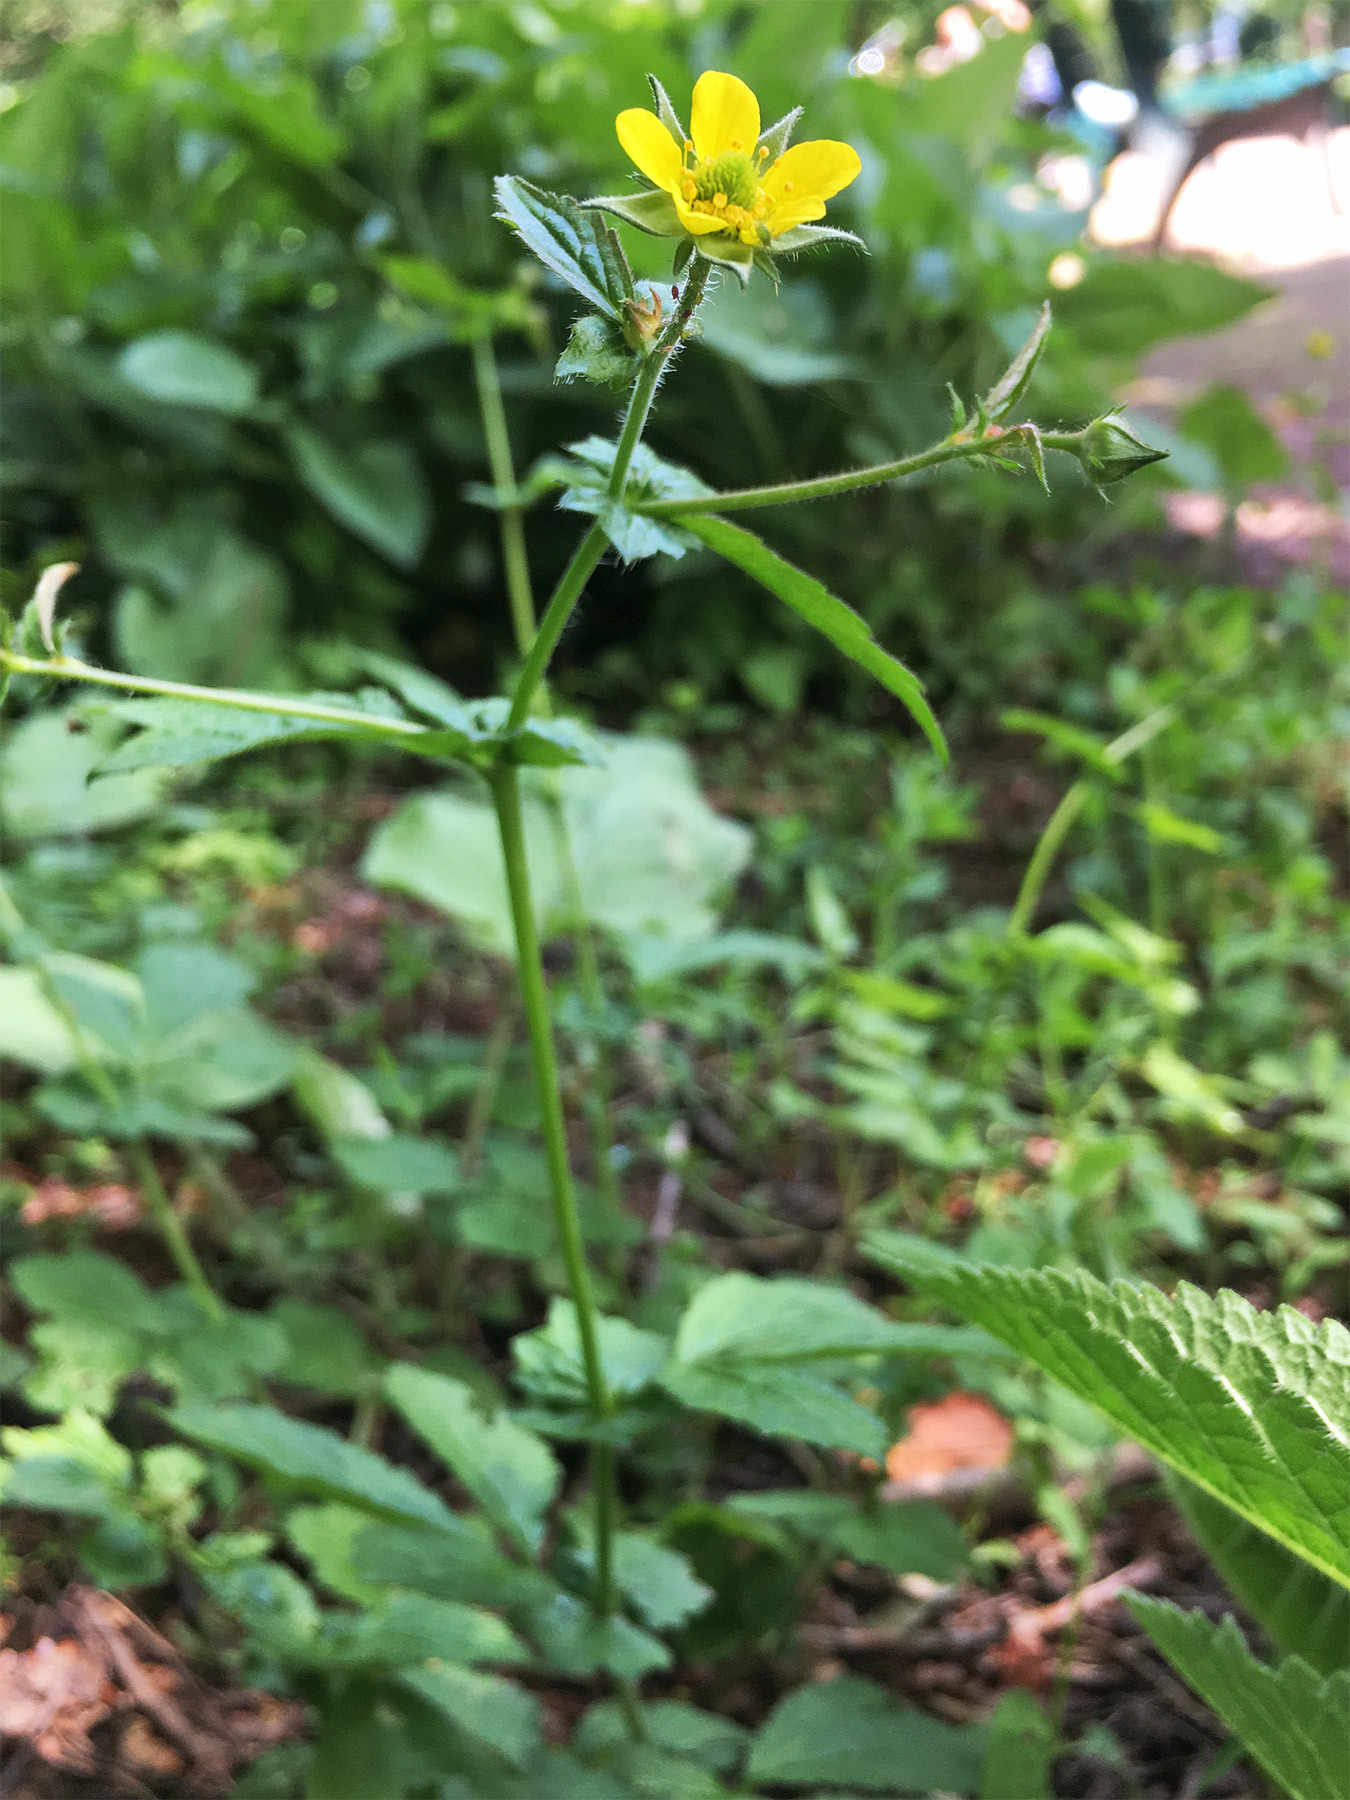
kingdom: Plantae
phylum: Tracheophyta
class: Magnoliopsida
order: Rosales
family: Rosaceae
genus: Geum
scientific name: Geum urbanum
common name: Wood avens
